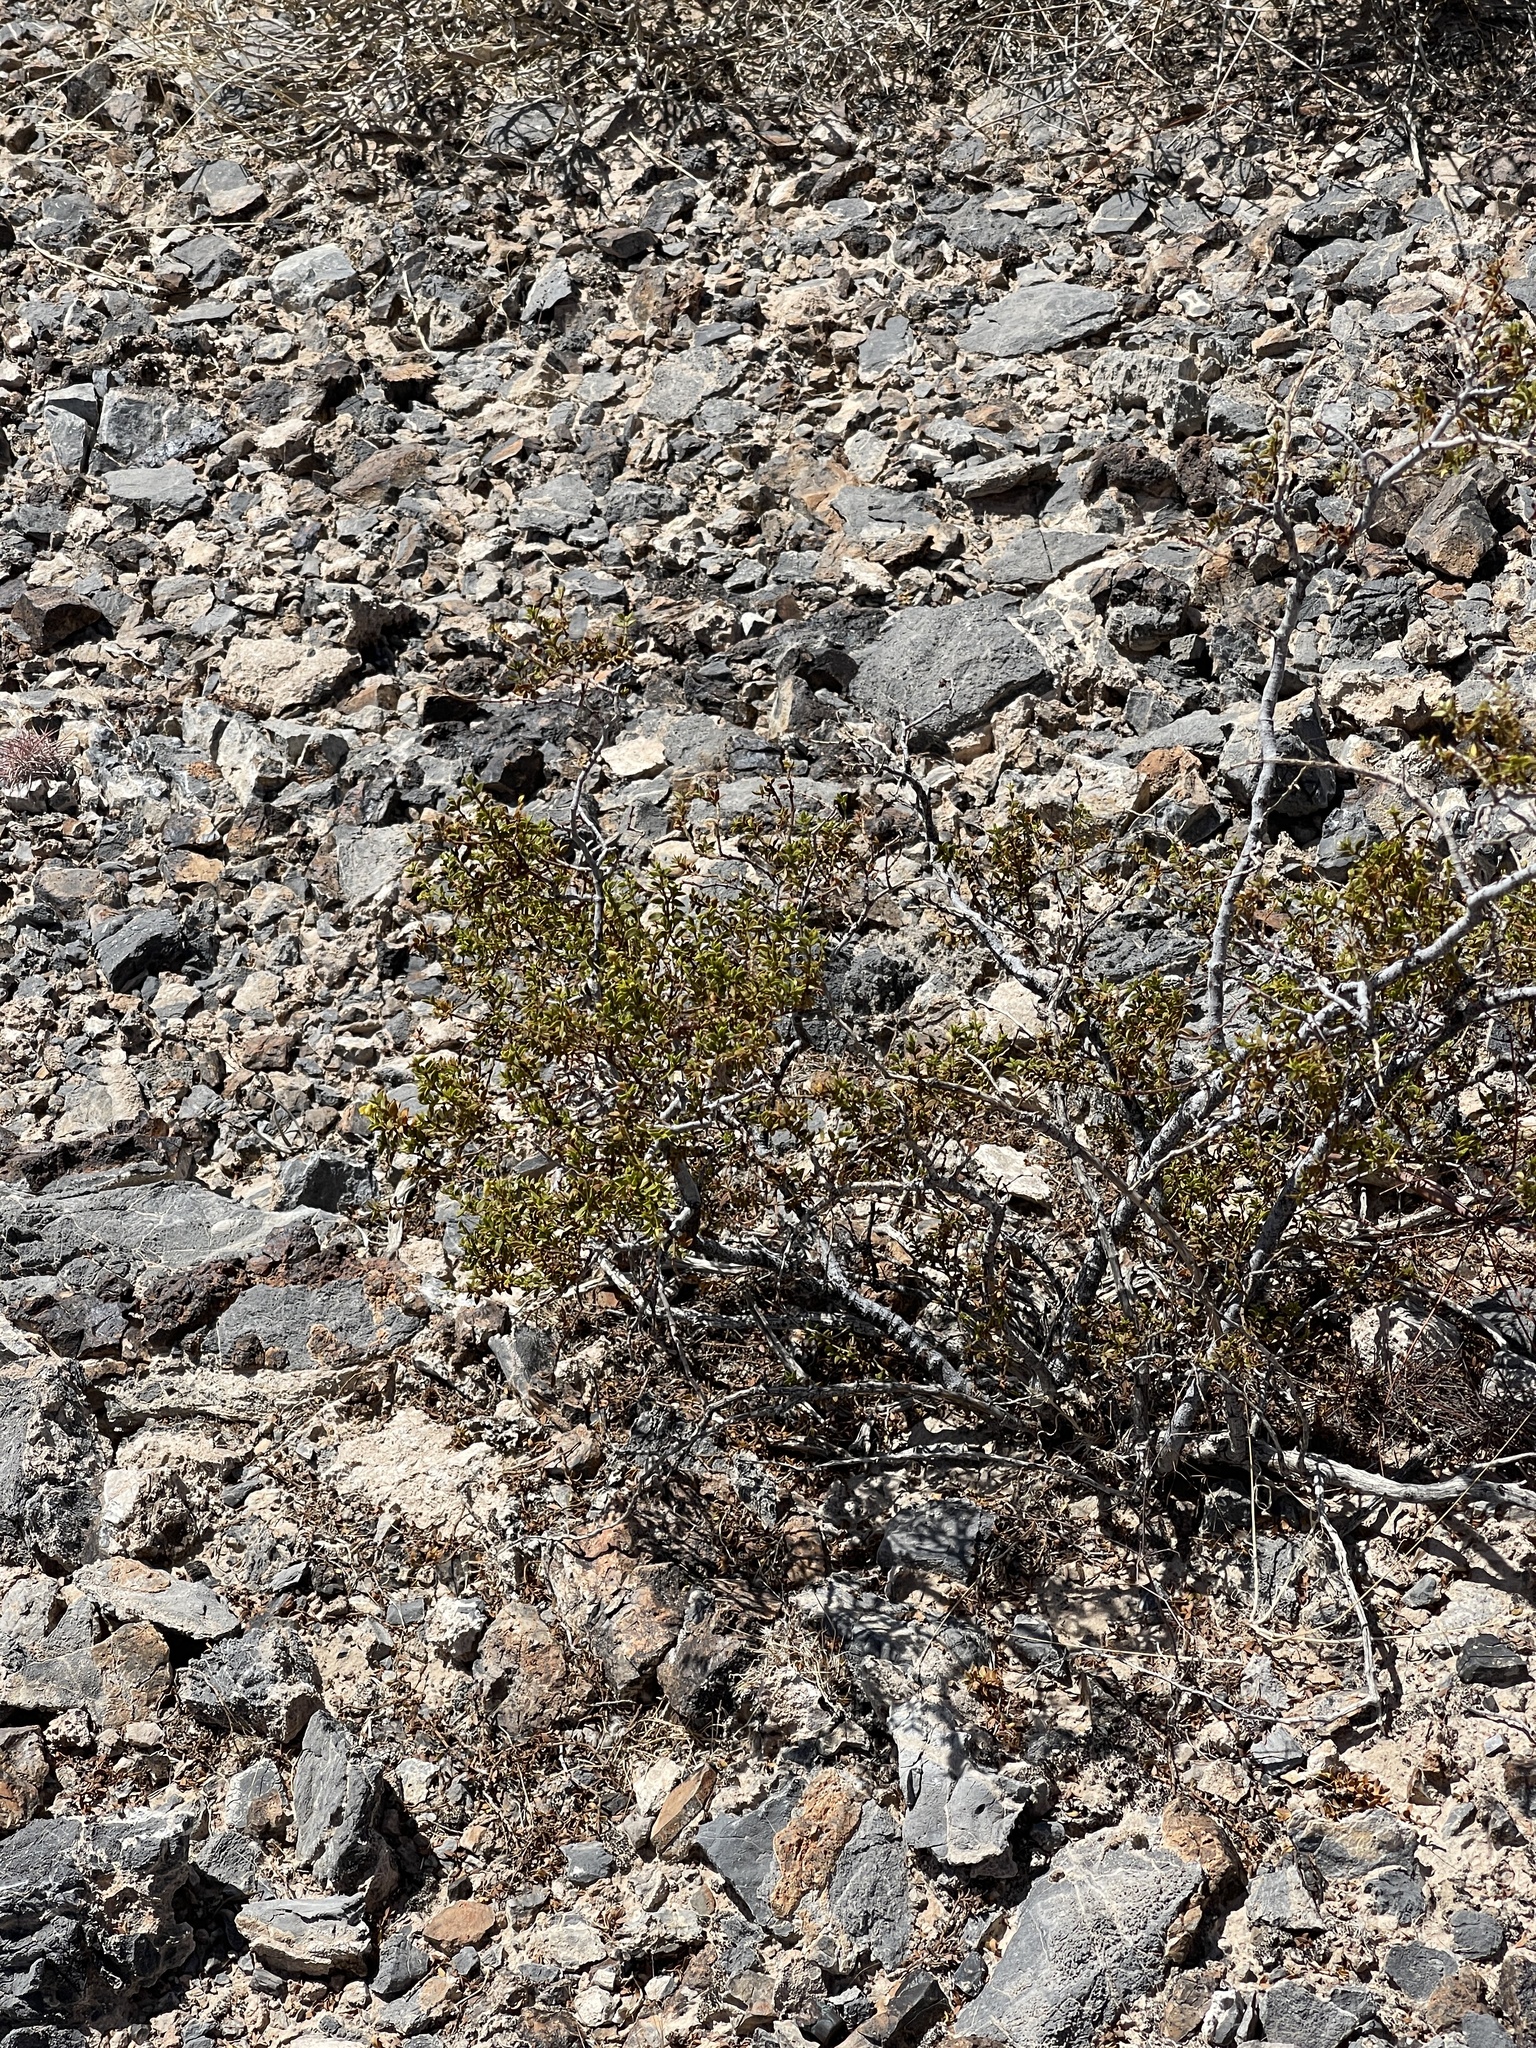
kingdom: Plantae
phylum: Tracheophyta
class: Magnoliopsida
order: Zygophyllales
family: Zygophyllaceae
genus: Larrea
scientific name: Larrea tridentata
